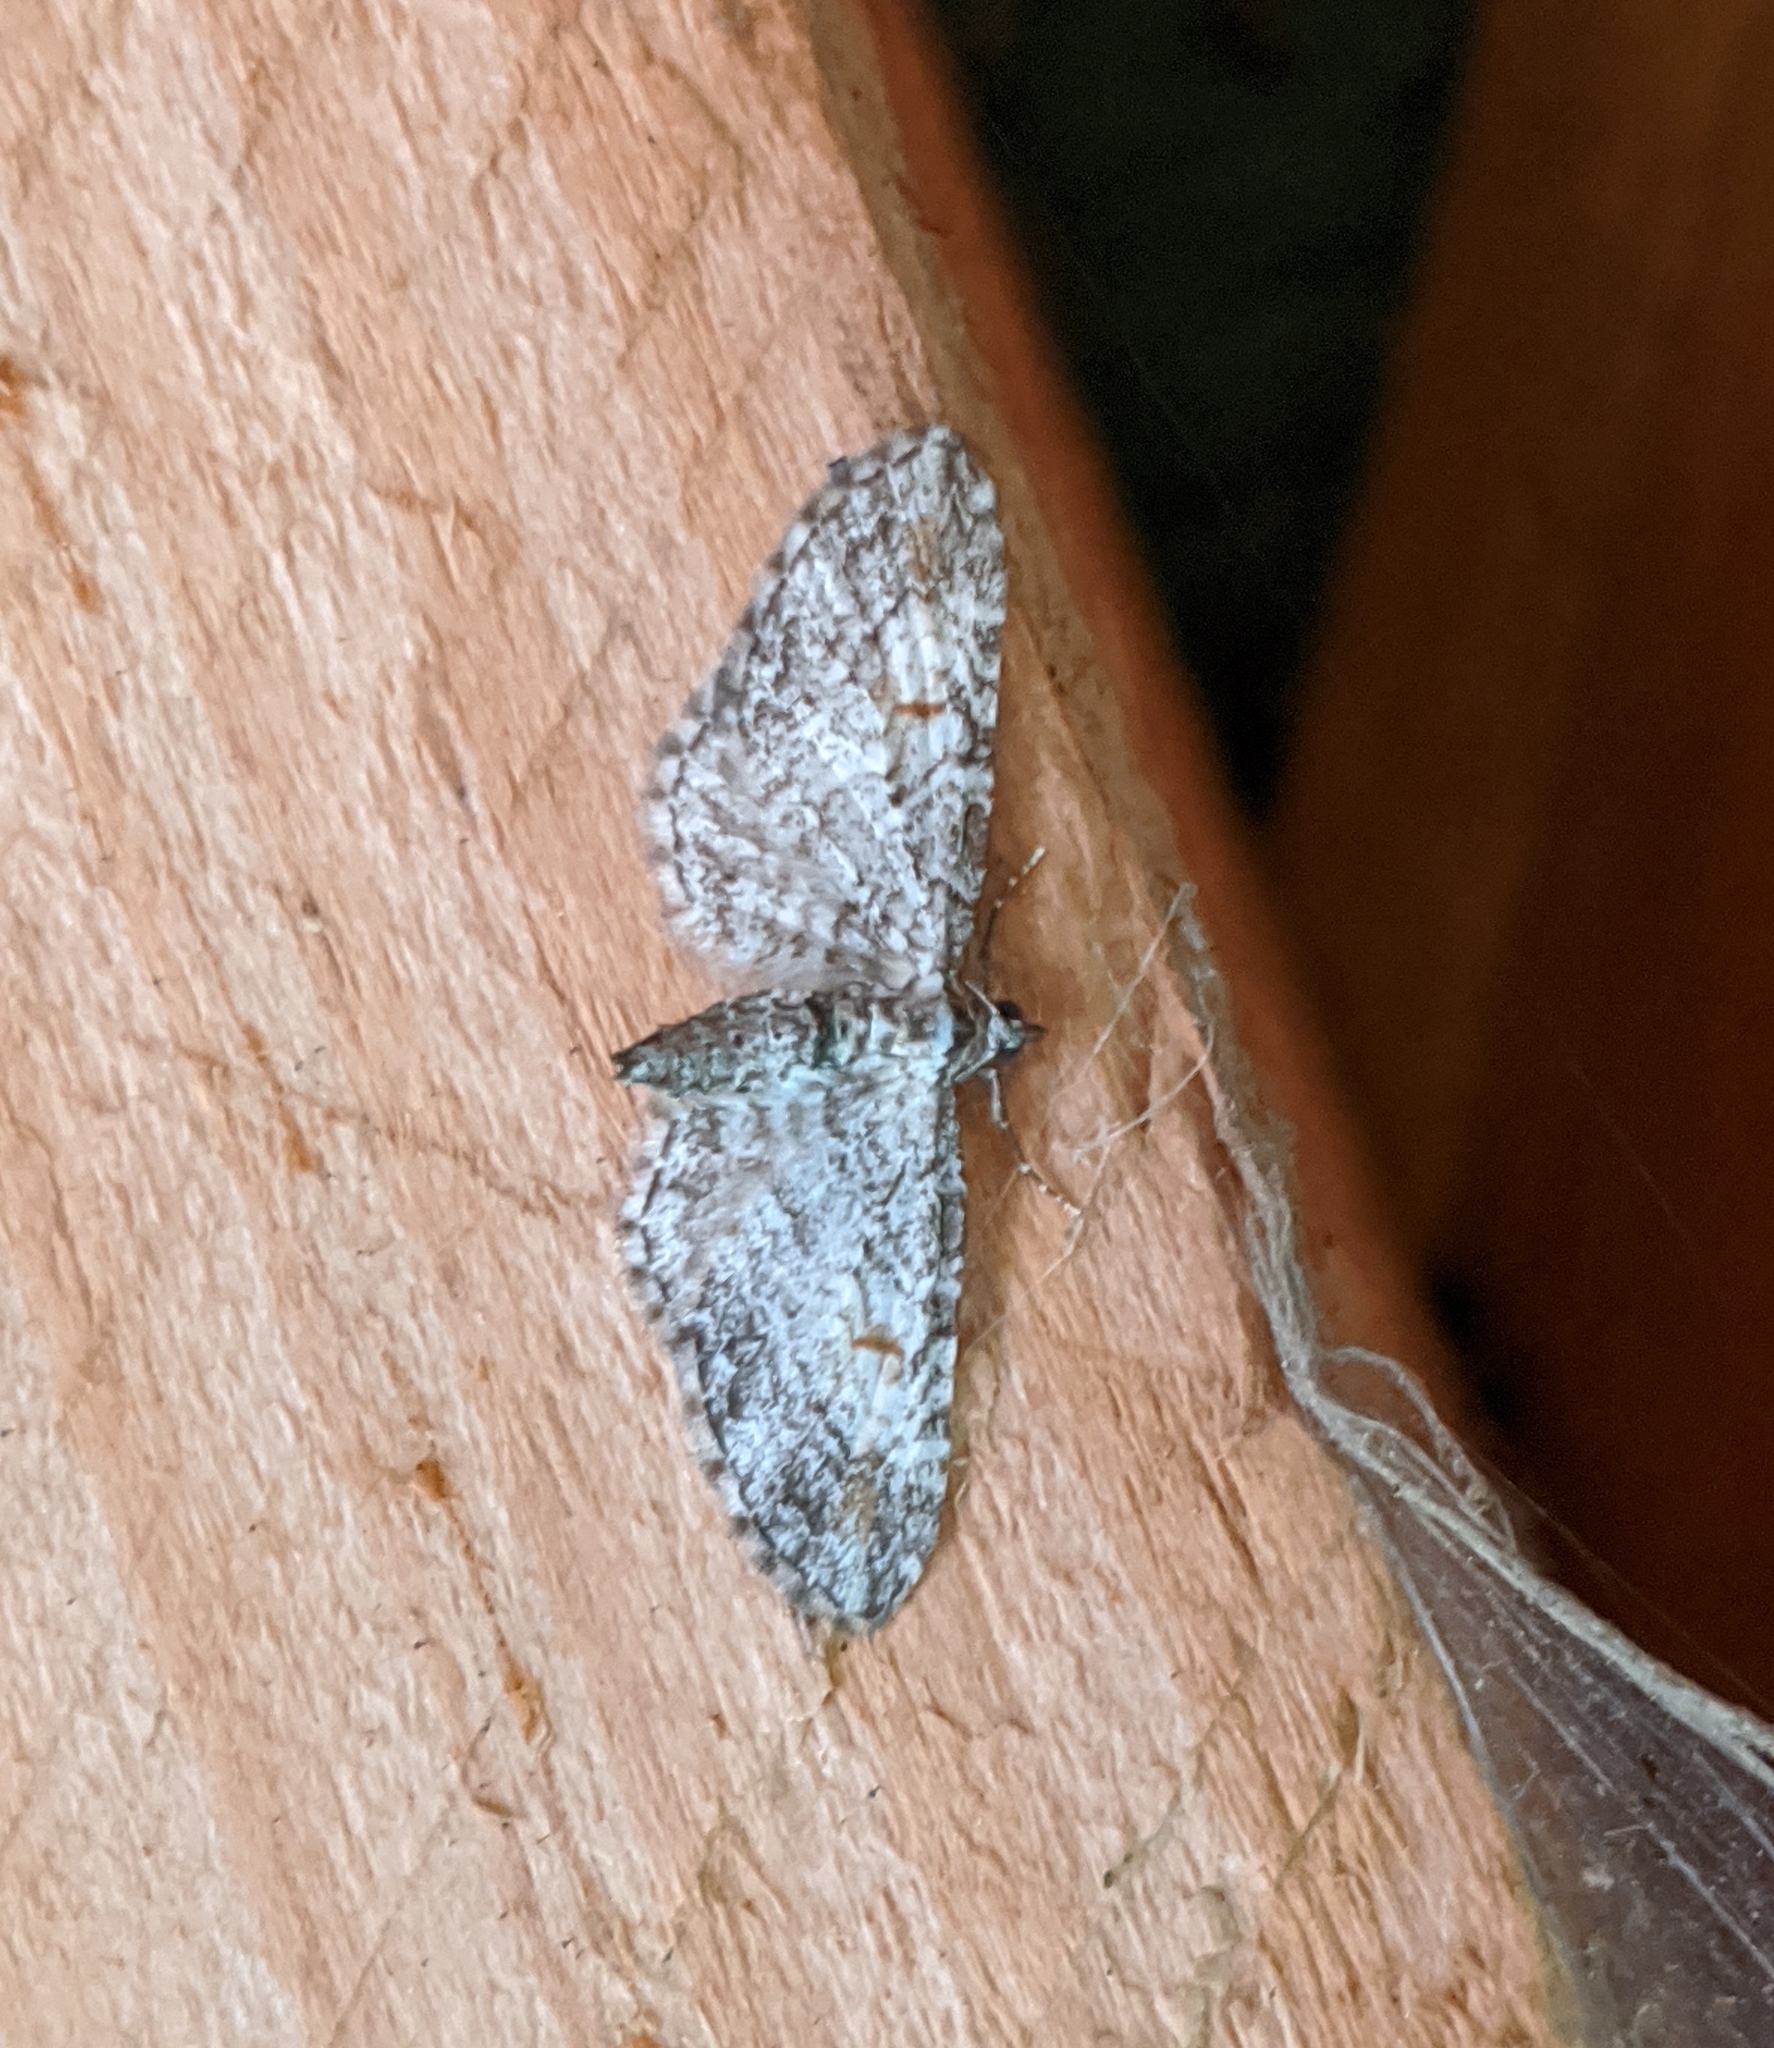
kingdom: Animalia
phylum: Arthropoda
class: Insecta
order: Lepidoptera
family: Geometridae
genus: Eupithecia
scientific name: Eupithecia graefii
